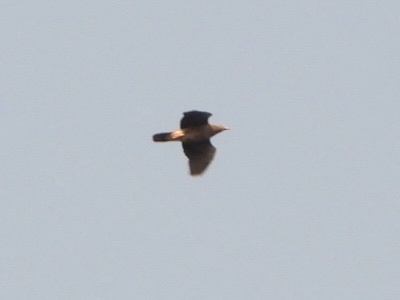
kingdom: Animalia
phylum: Chordata
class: Aves
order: Columbiformes
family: Columbidae
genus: Patagioenas
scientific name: Patagioenas fasciata
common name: Band-tailed pigeon
